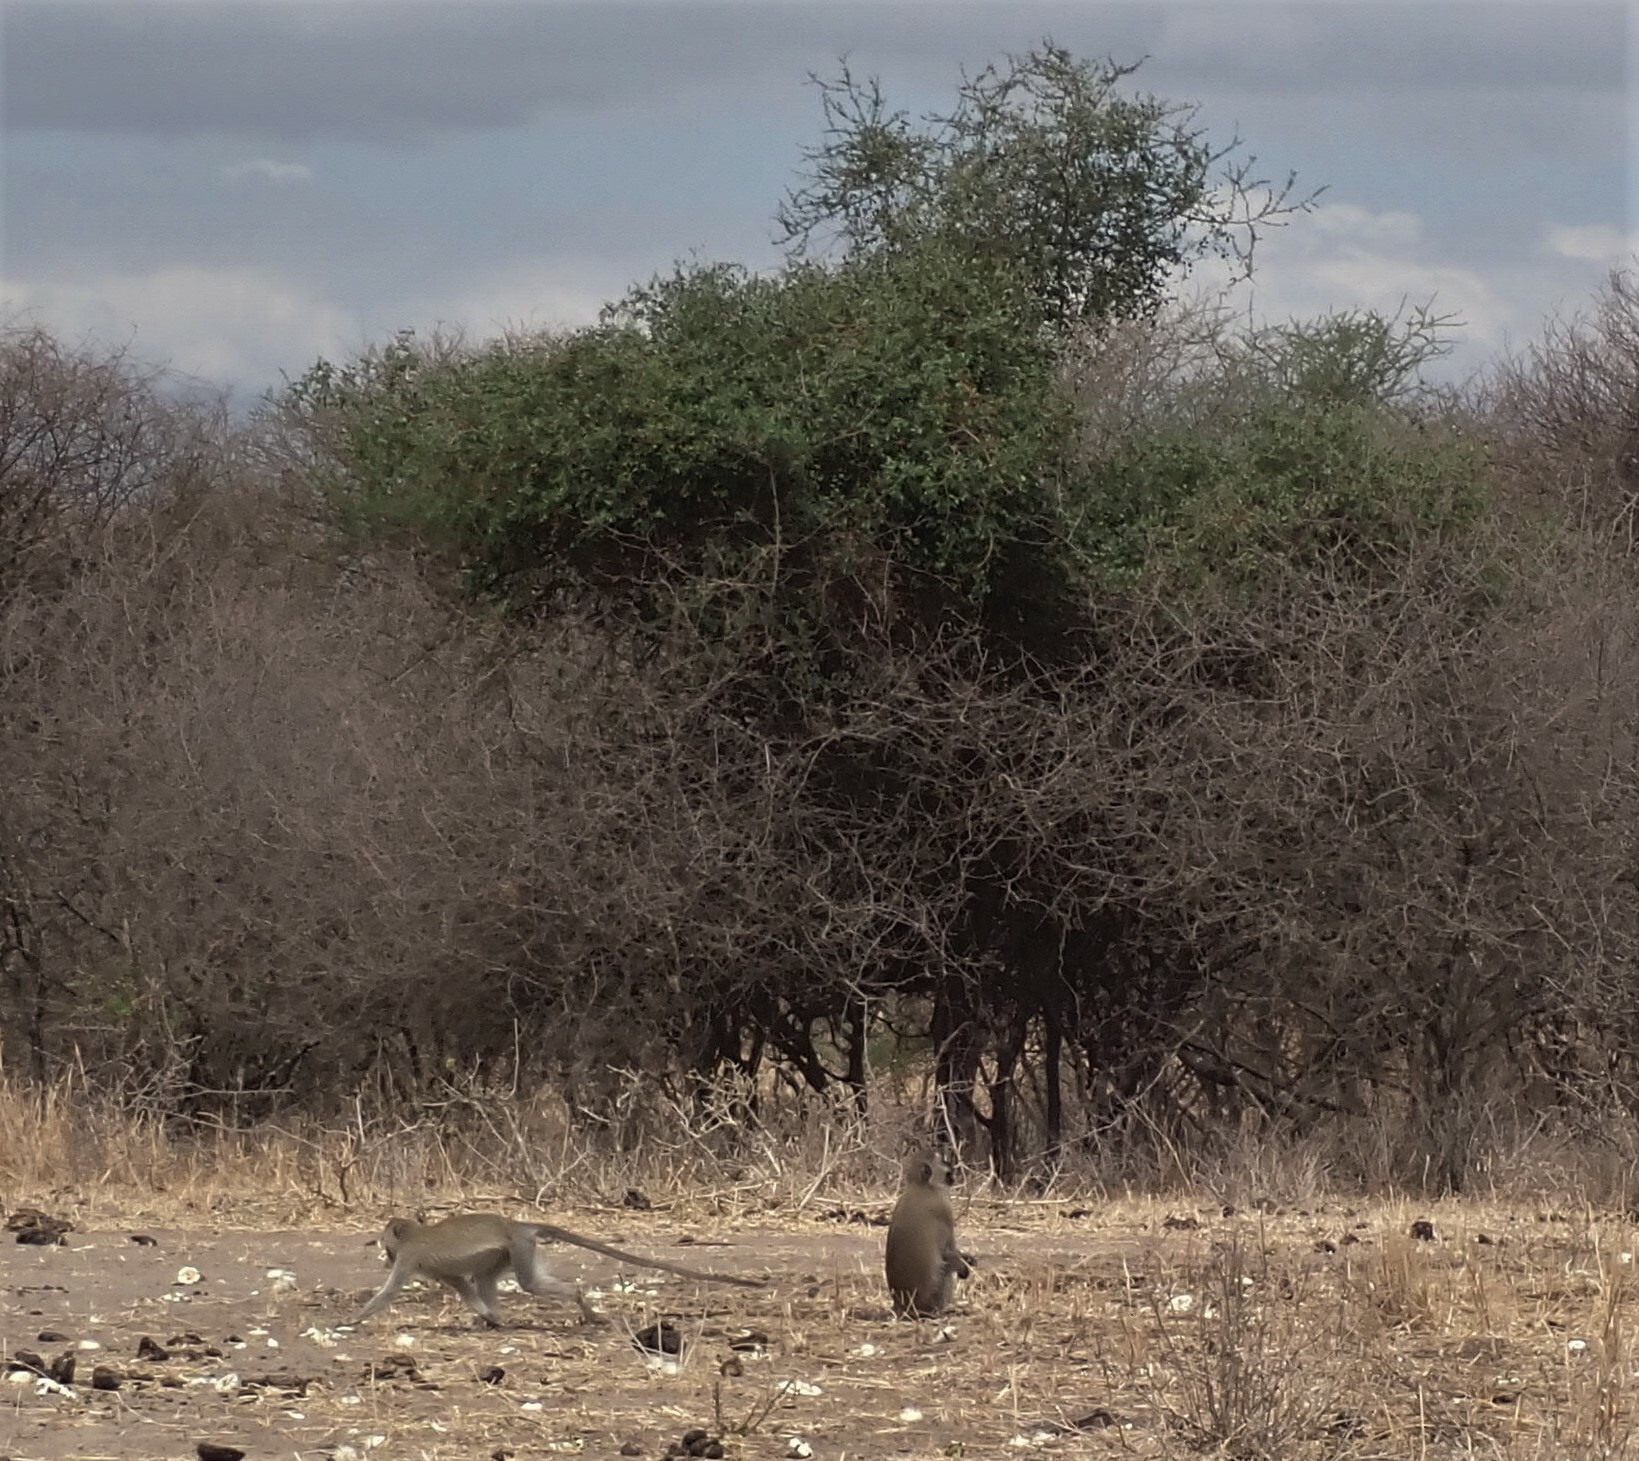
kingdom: Animalia
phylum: Chordata
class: Mammalia
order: Primates
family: Cercopithecidae
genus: Chlorocebus
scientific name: Chlorocebus pygerythrus
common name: Vervet monkey
